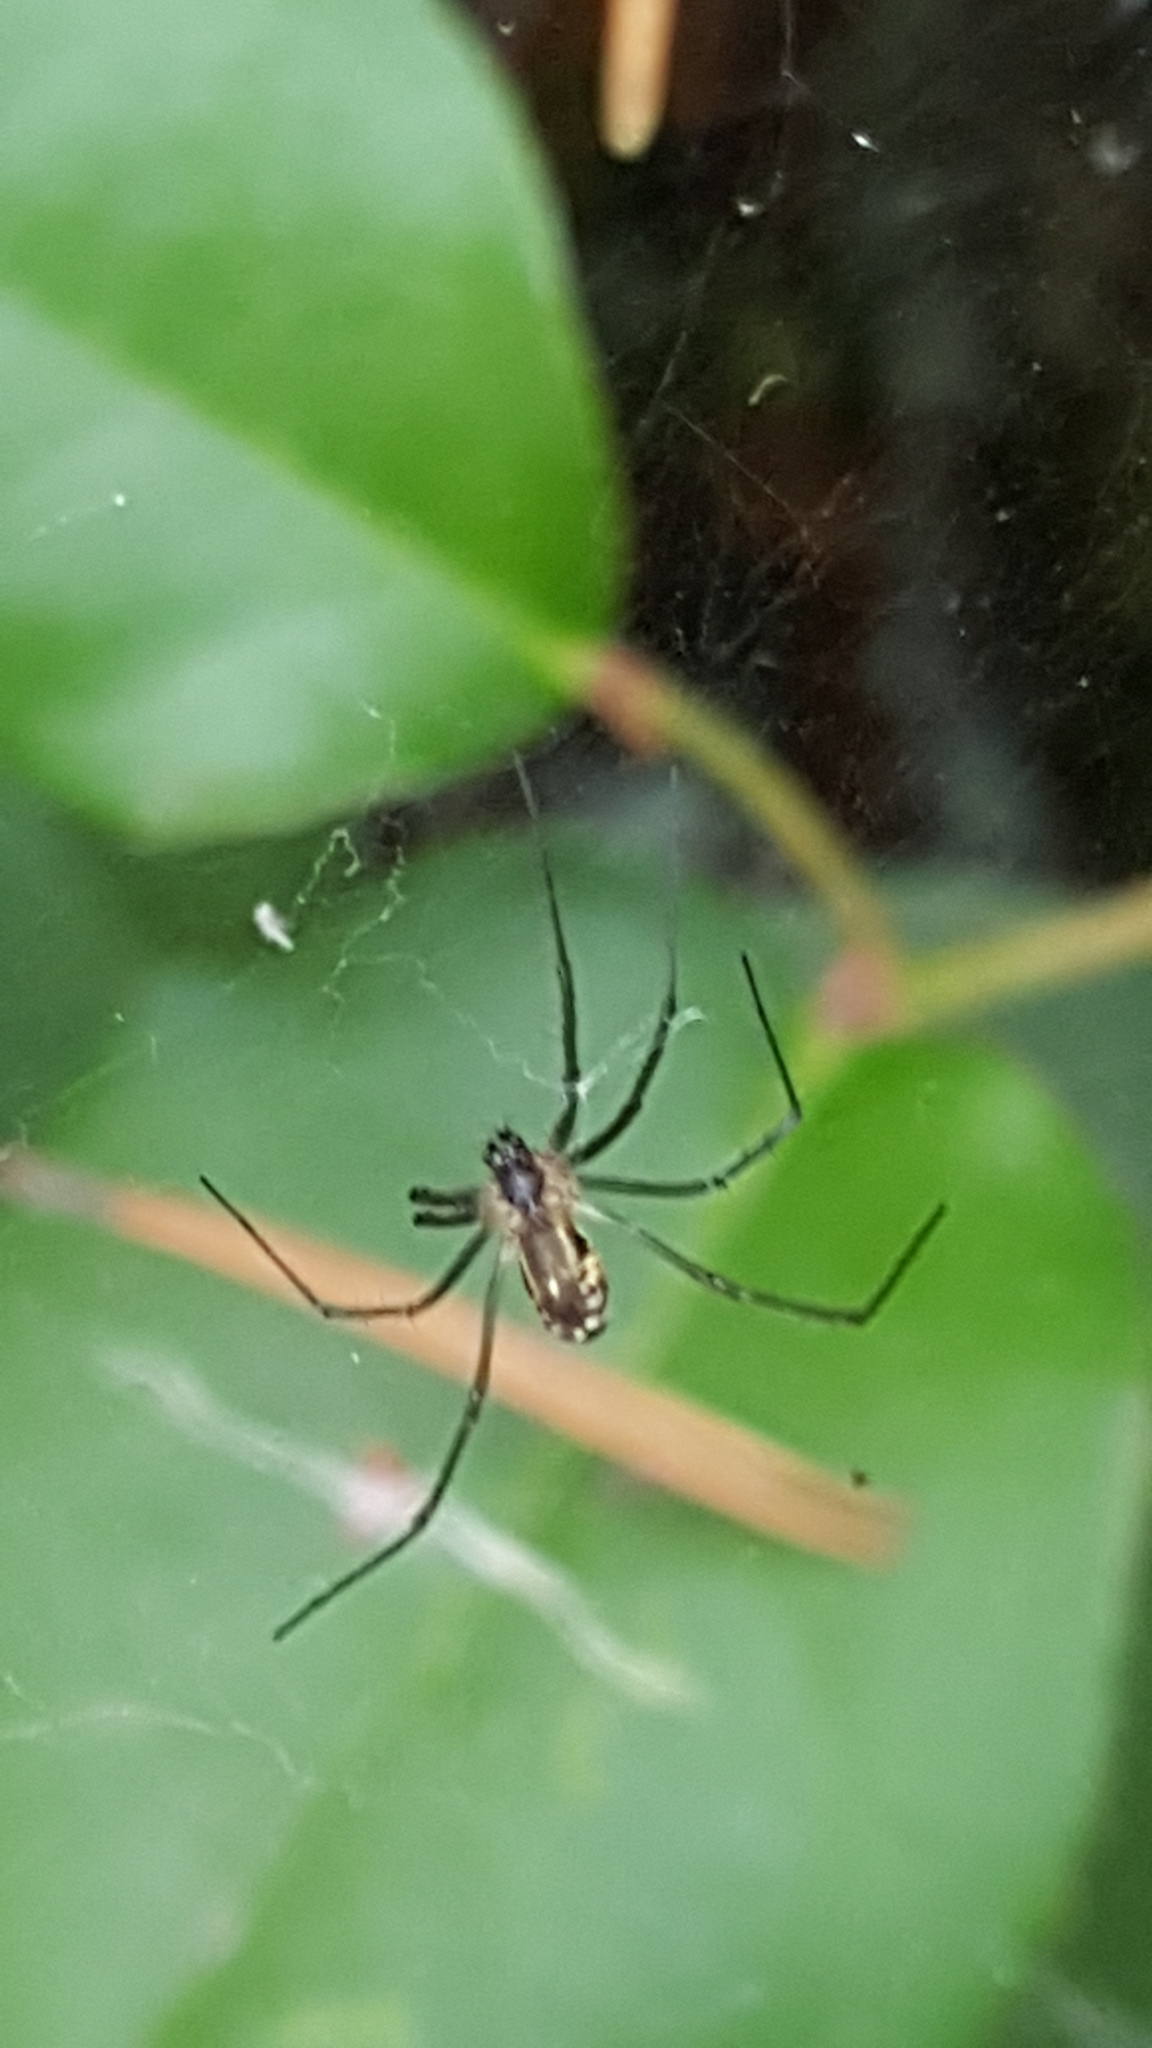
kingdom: Animalia
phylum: Arthropoda
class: Arachnida
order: Araneae
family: Linyphiidae
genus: Neriene
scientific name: Neriene litigiosa
